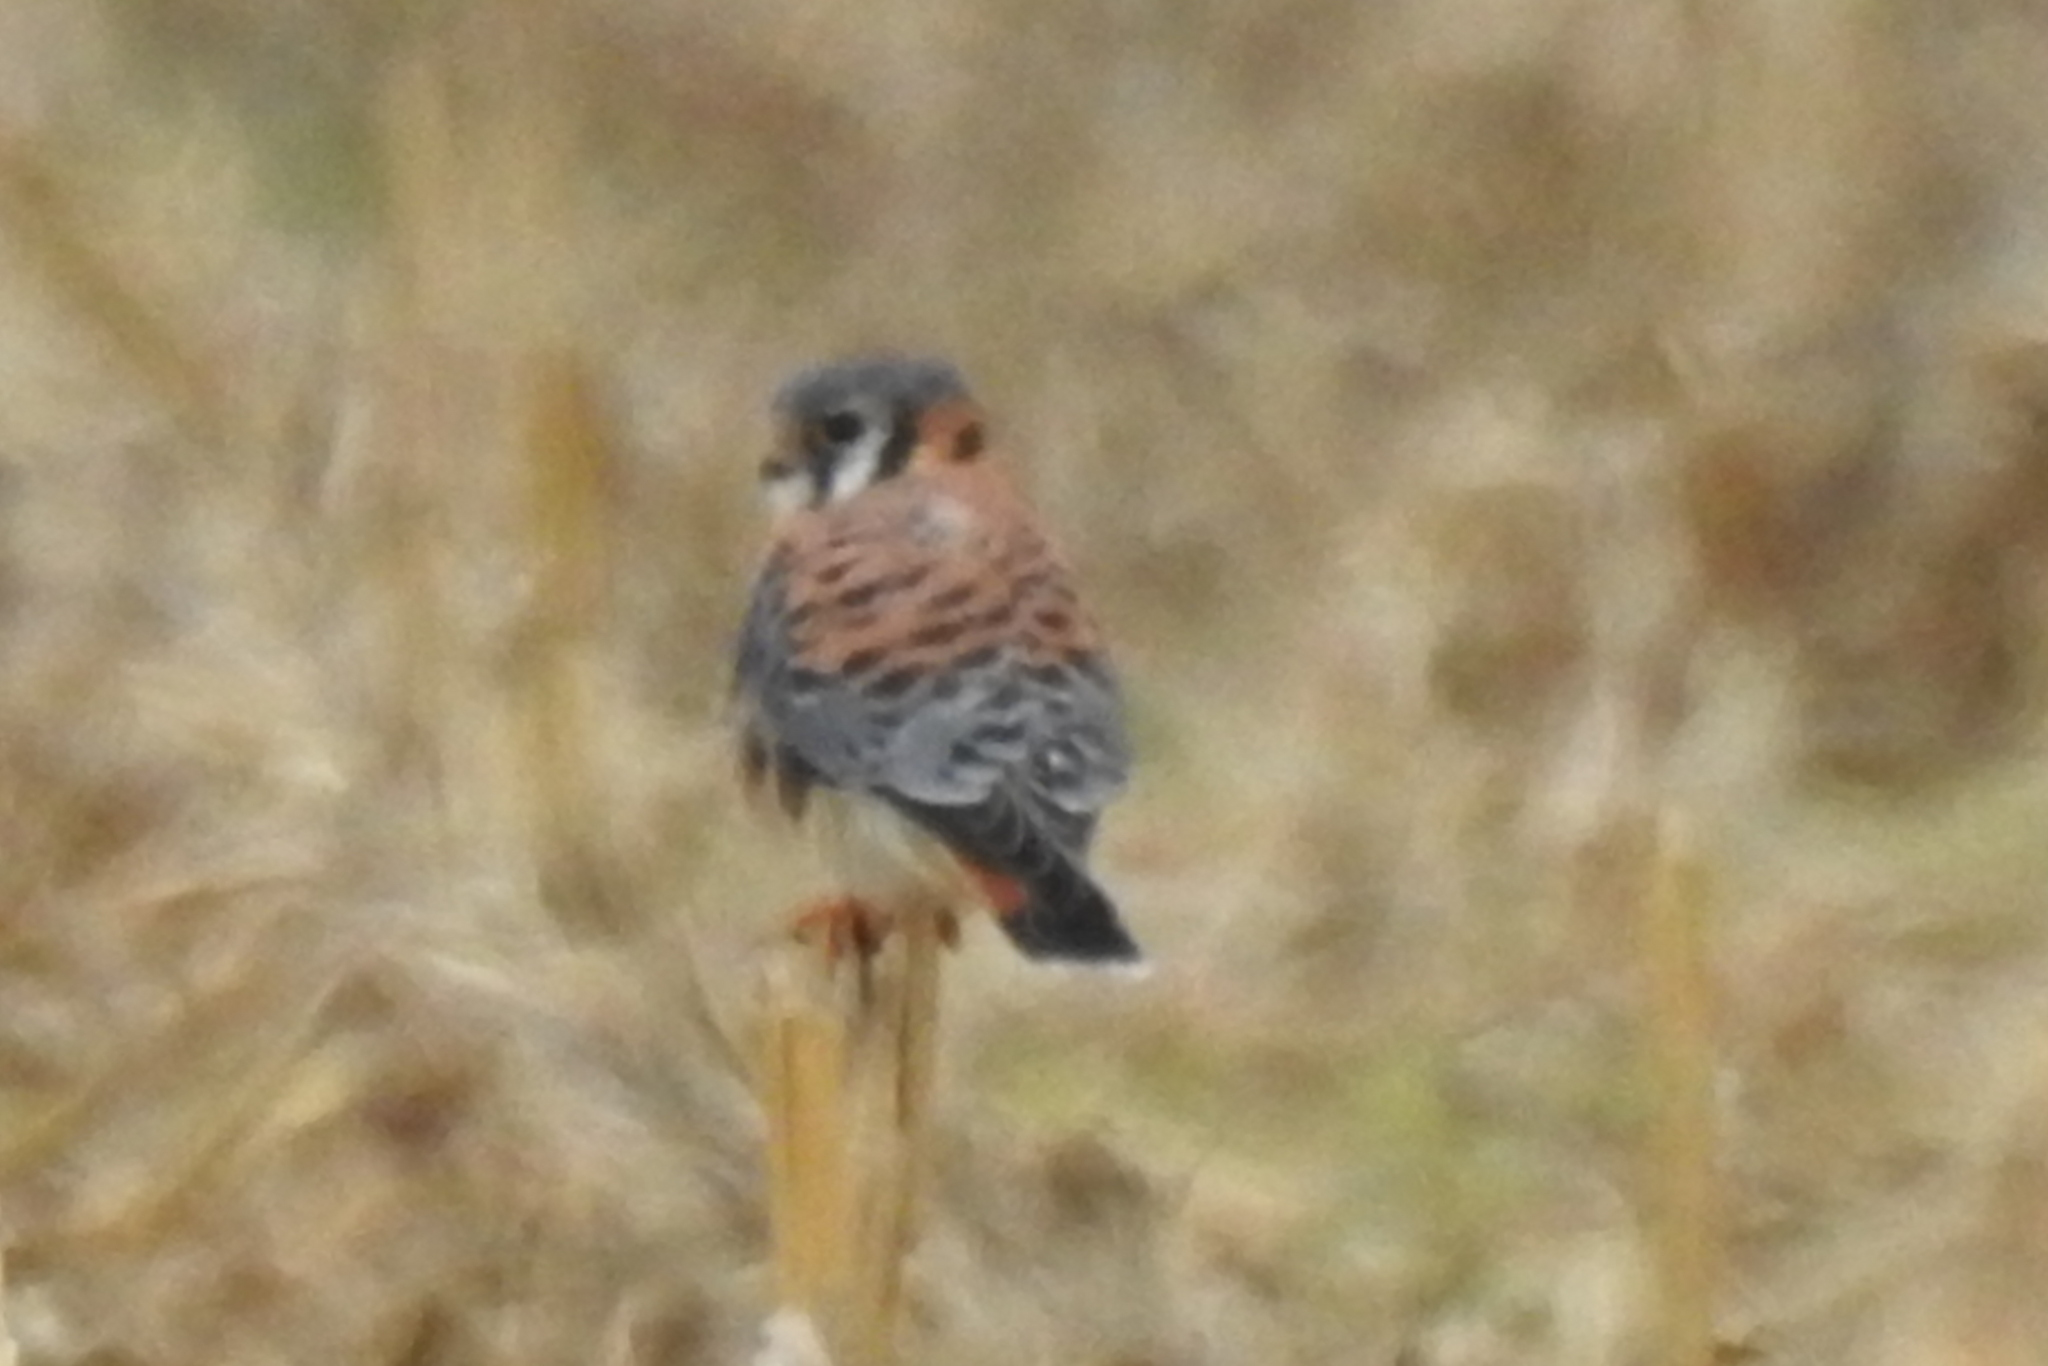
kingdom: Animalia
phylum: Chordata
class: Aves
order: Falconiformes
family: Falconidae
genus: Falco
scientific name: Falco sparverius
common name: American kestrel
